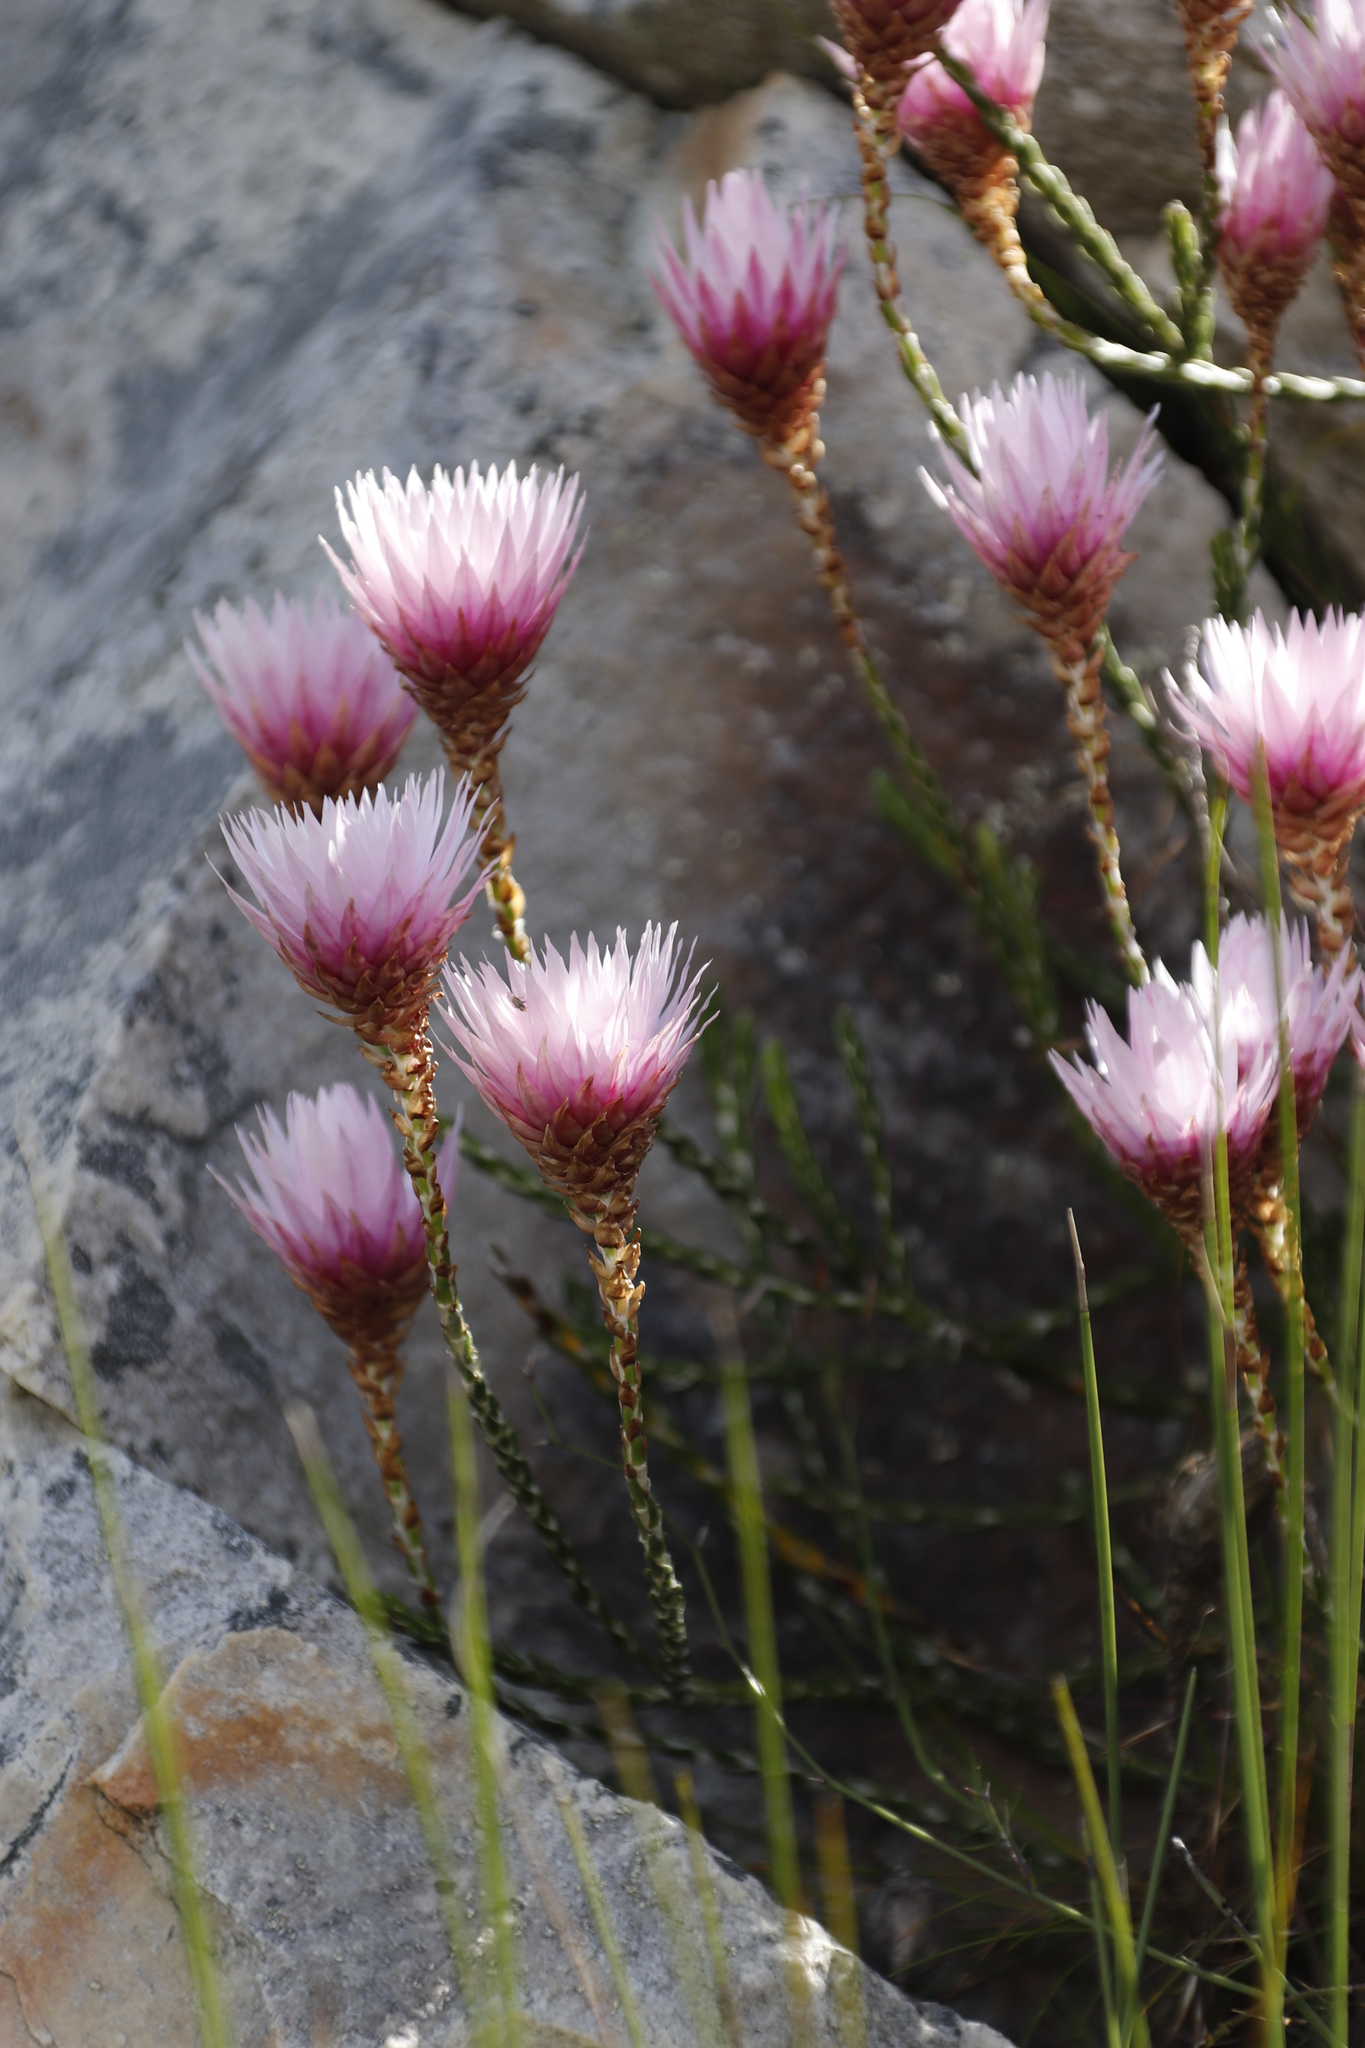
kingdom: Plantae
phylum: Tracheophyta
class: Magnoliopsida
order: Asterales
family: Asteraceae
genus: Edmondia
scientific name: Edmondia pinifolia
